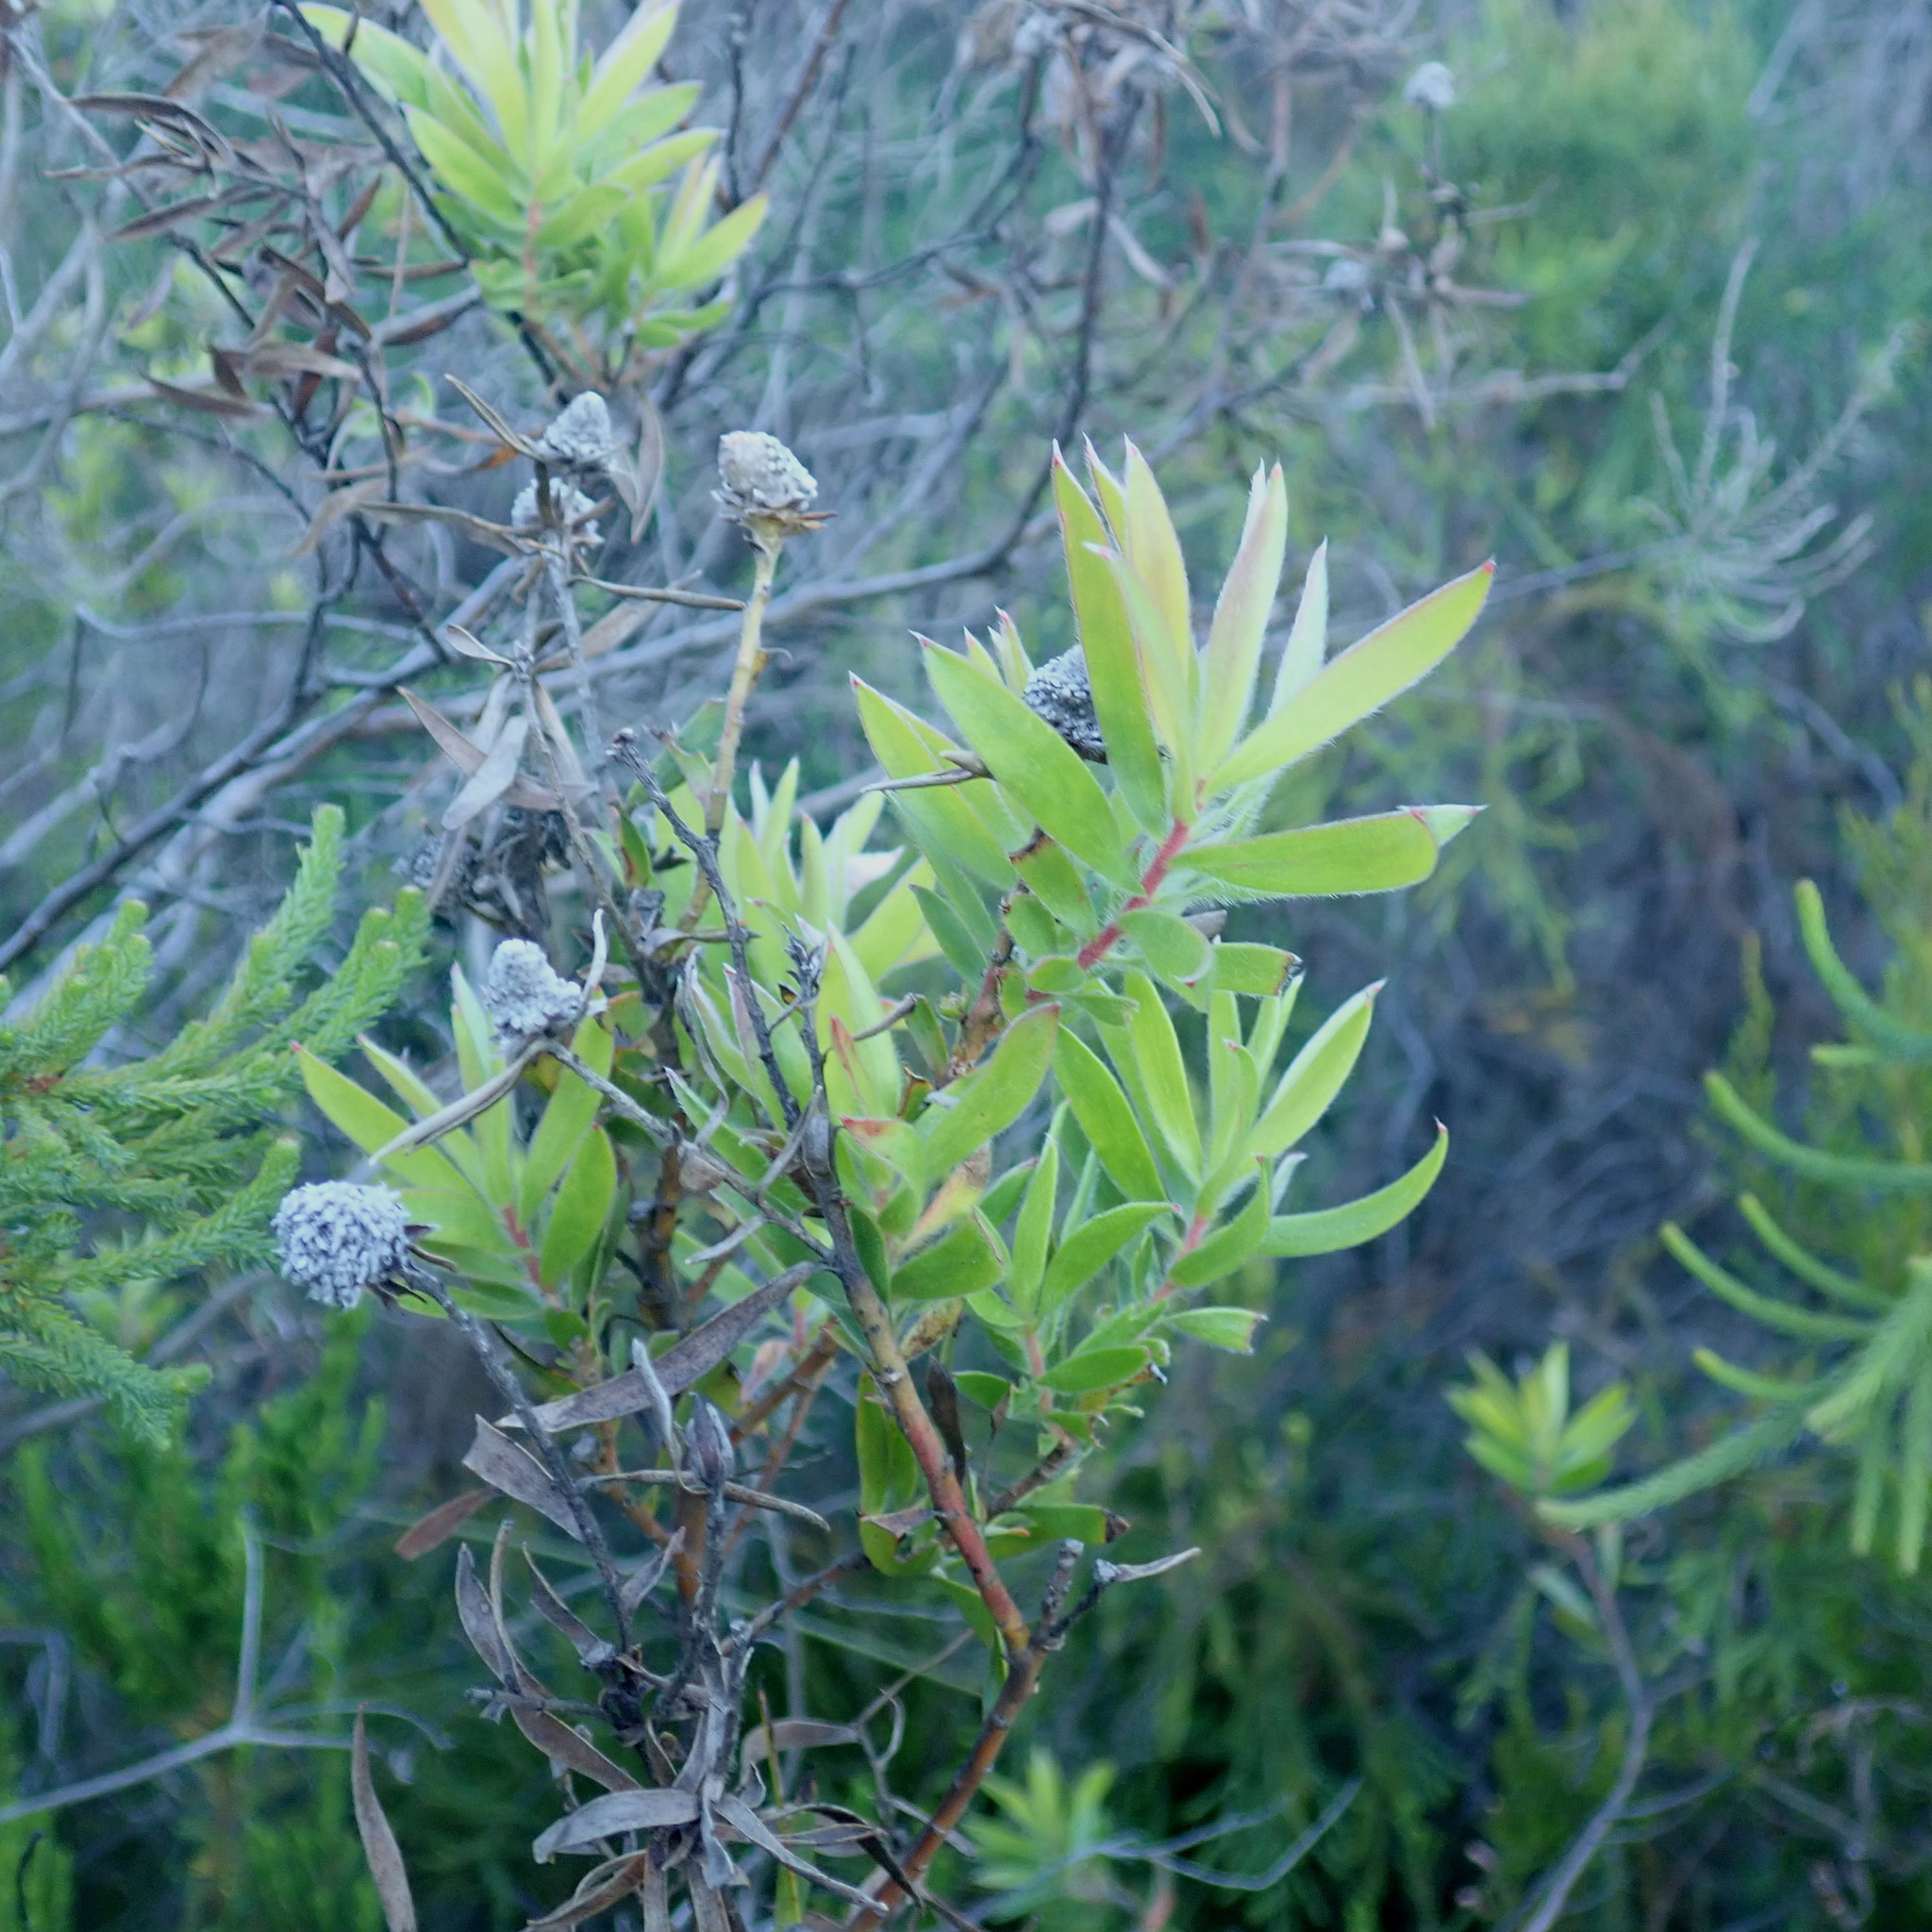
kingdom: Plantae
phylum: Tracheophyta
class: Magnoliopsida
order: Proteales
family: Proteaceae
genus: Leucadendron
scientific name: Leucadendron conicum
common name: Garden route conebush
